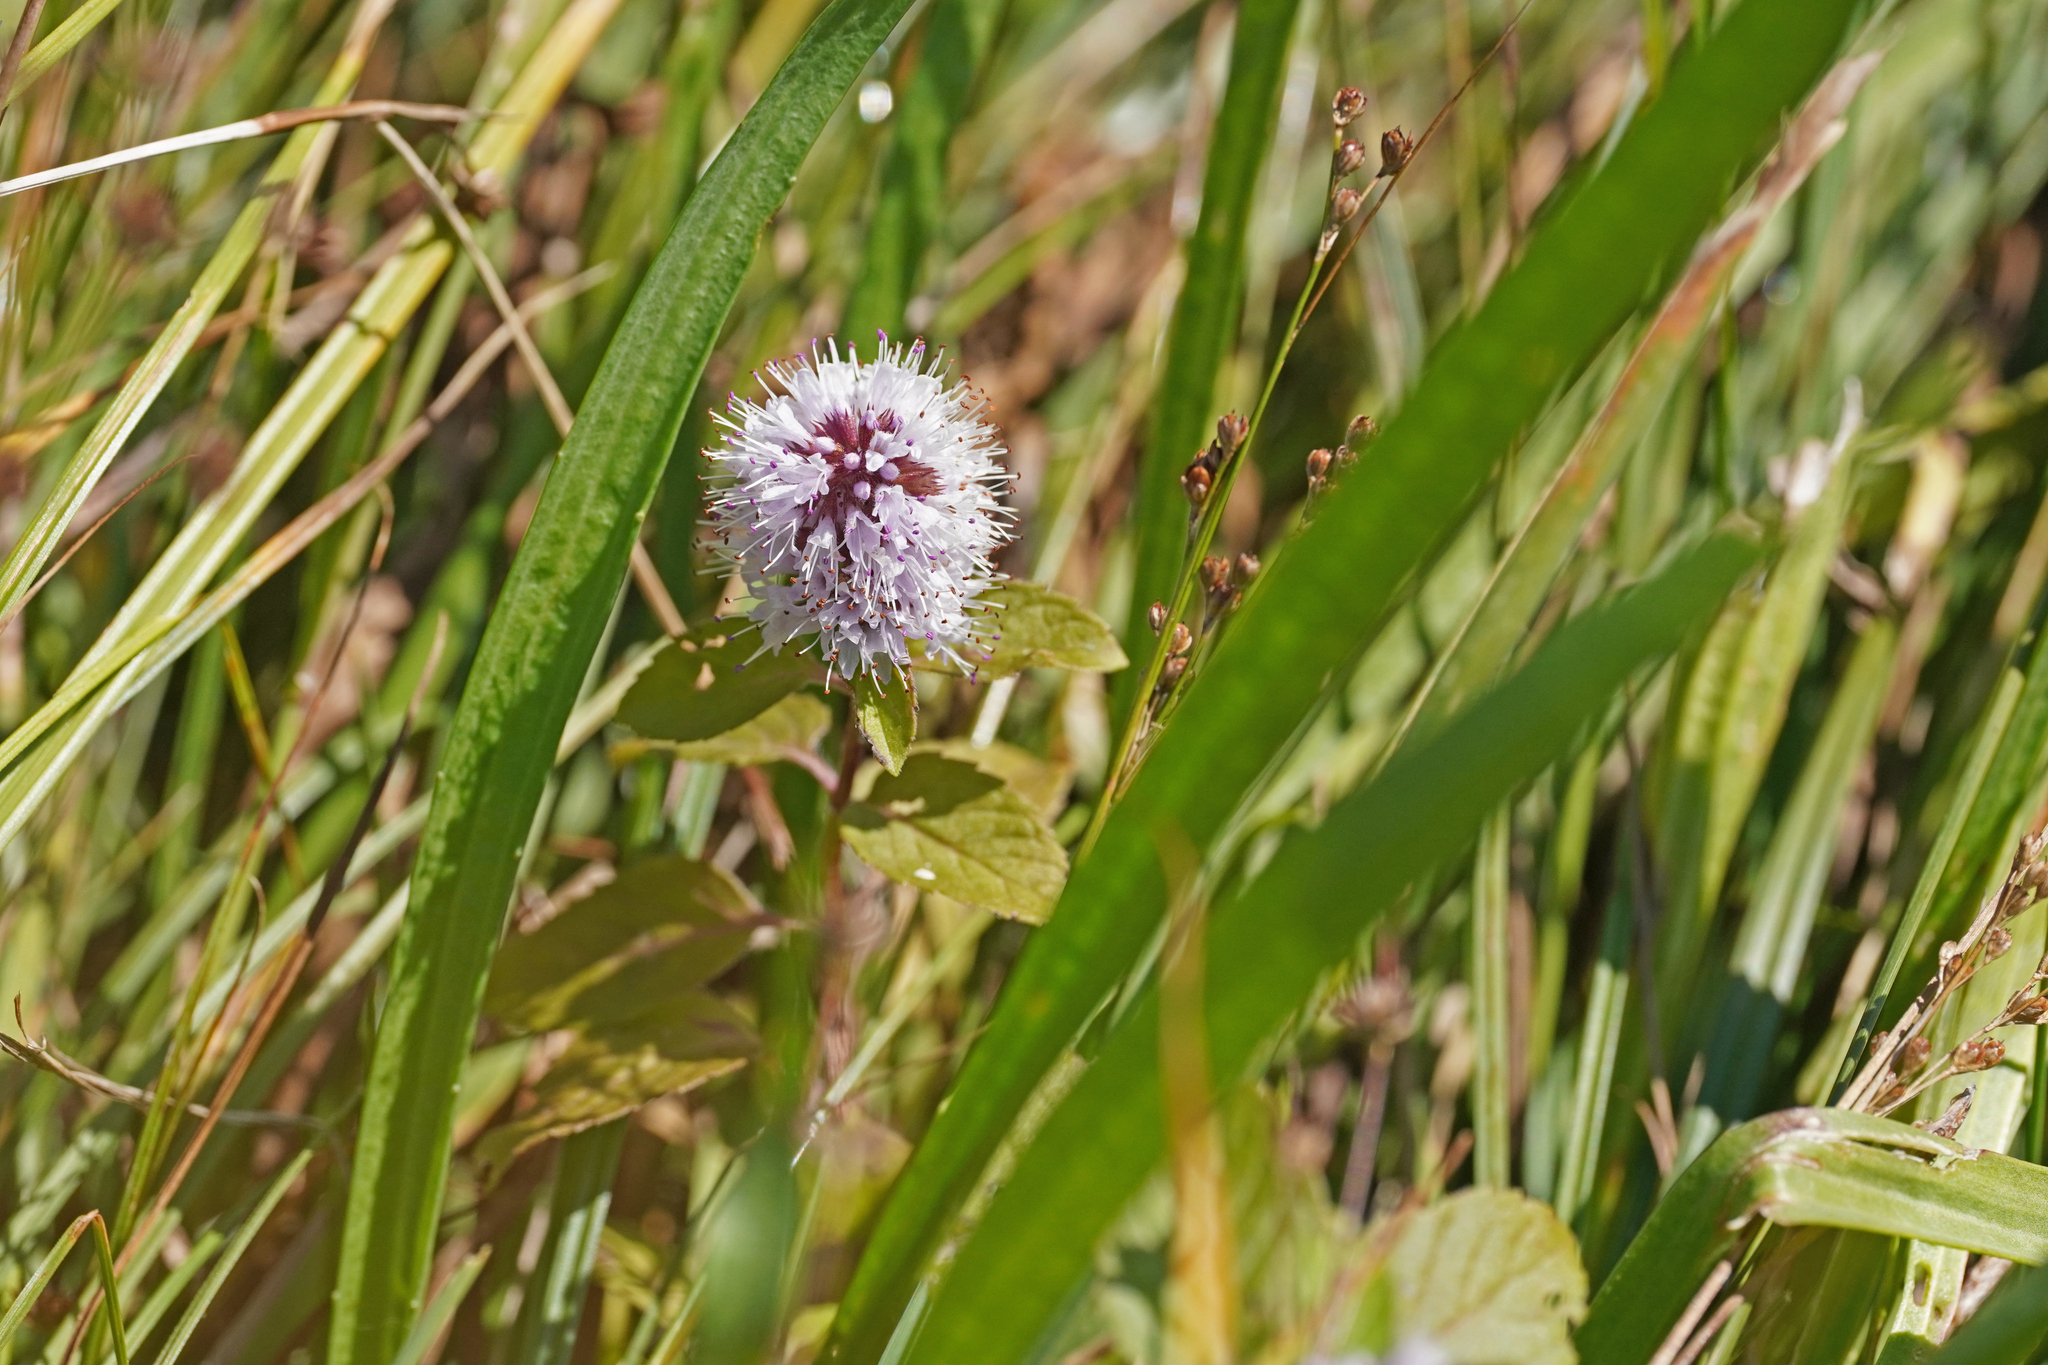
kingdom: Plantae
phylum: Tracheophyta
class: Magnoliopsida
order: Lamiales
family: Lamiaceae
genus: Mentha
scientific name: Mentha aquatica
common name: Water mint
